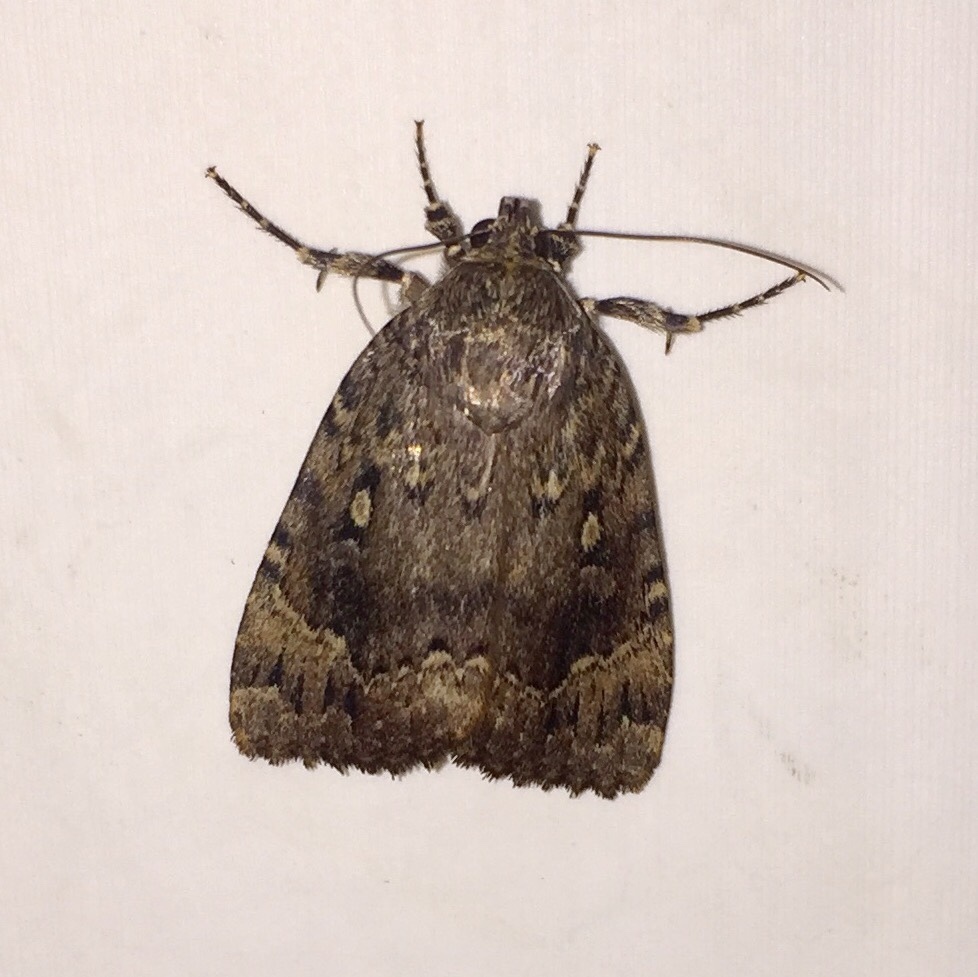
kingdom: Animalia
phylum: Arthropoda
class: Insecta
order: Lepidoptera
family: Noctuidae
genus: Amphipyra
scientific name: Amphipyra pyramidoides
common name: American copper underwing
